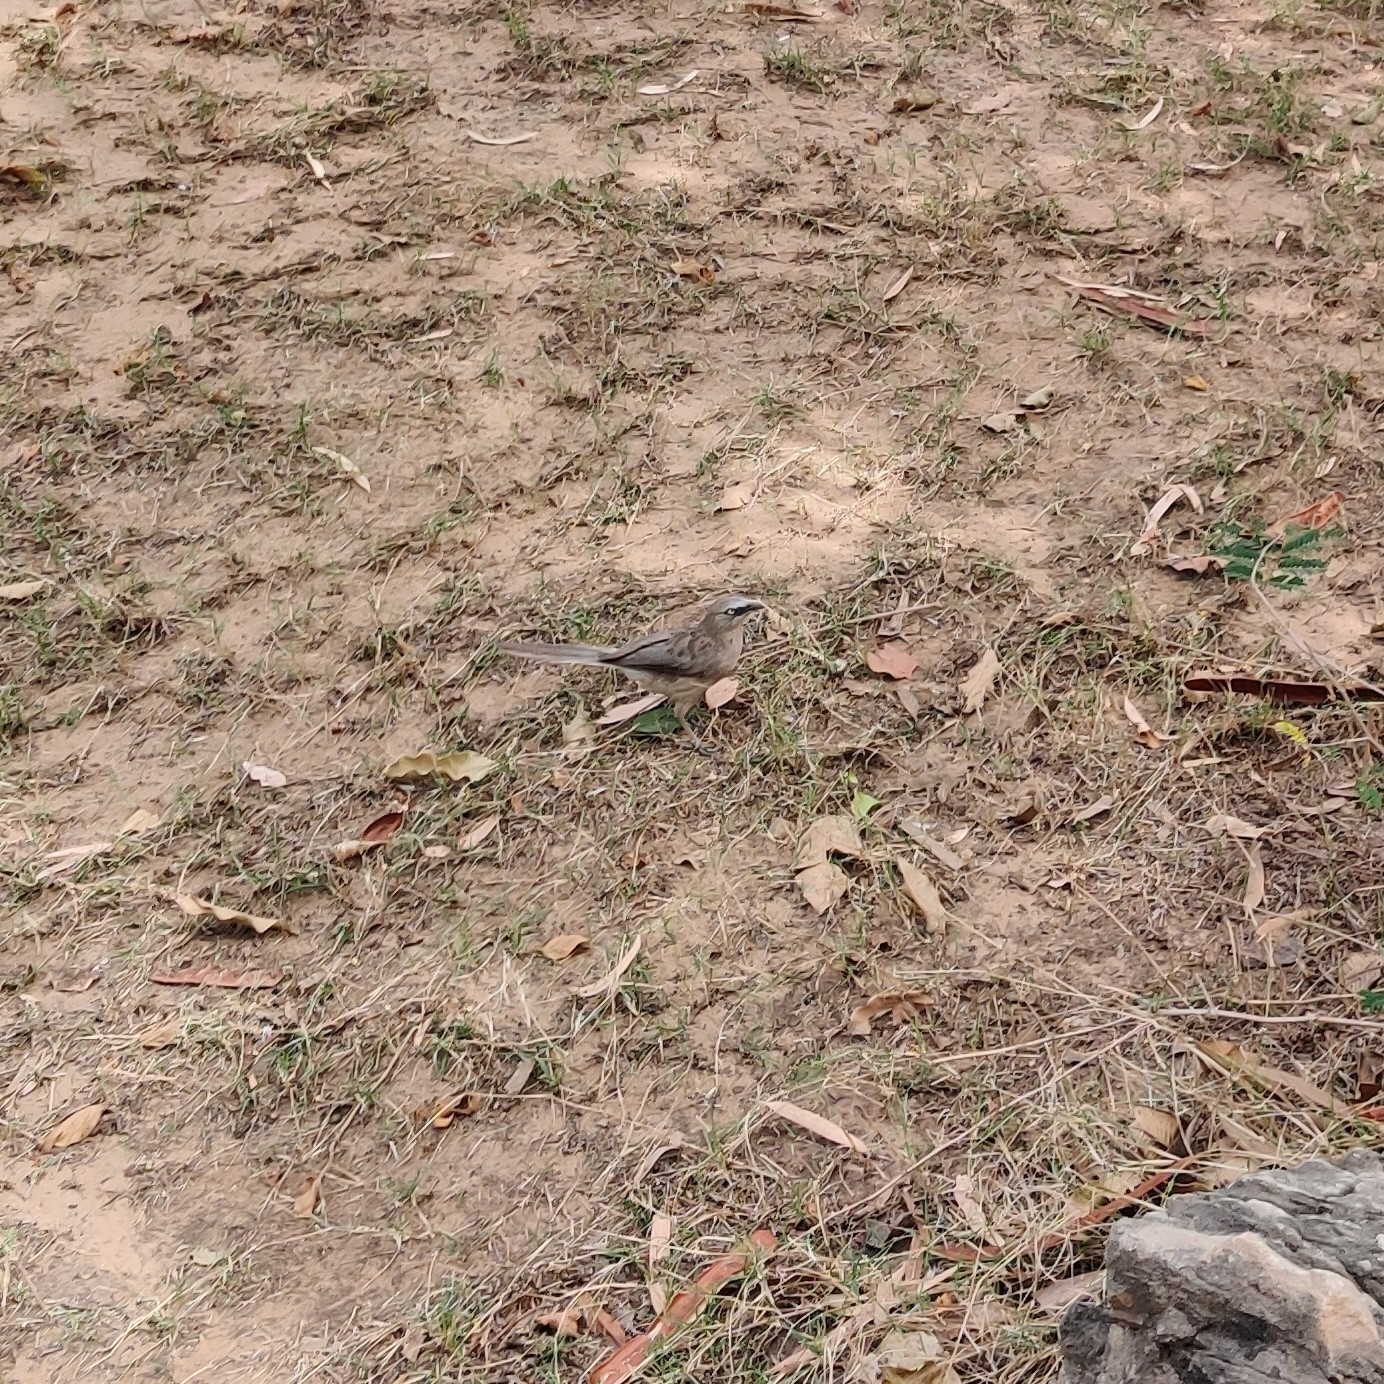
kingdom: Animalia
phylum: Chordata
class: Aves
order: Passeriformes
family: Leiothrichidae
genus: Turdoides
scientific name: Turdoides malcolmi
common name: Large grey babbler
